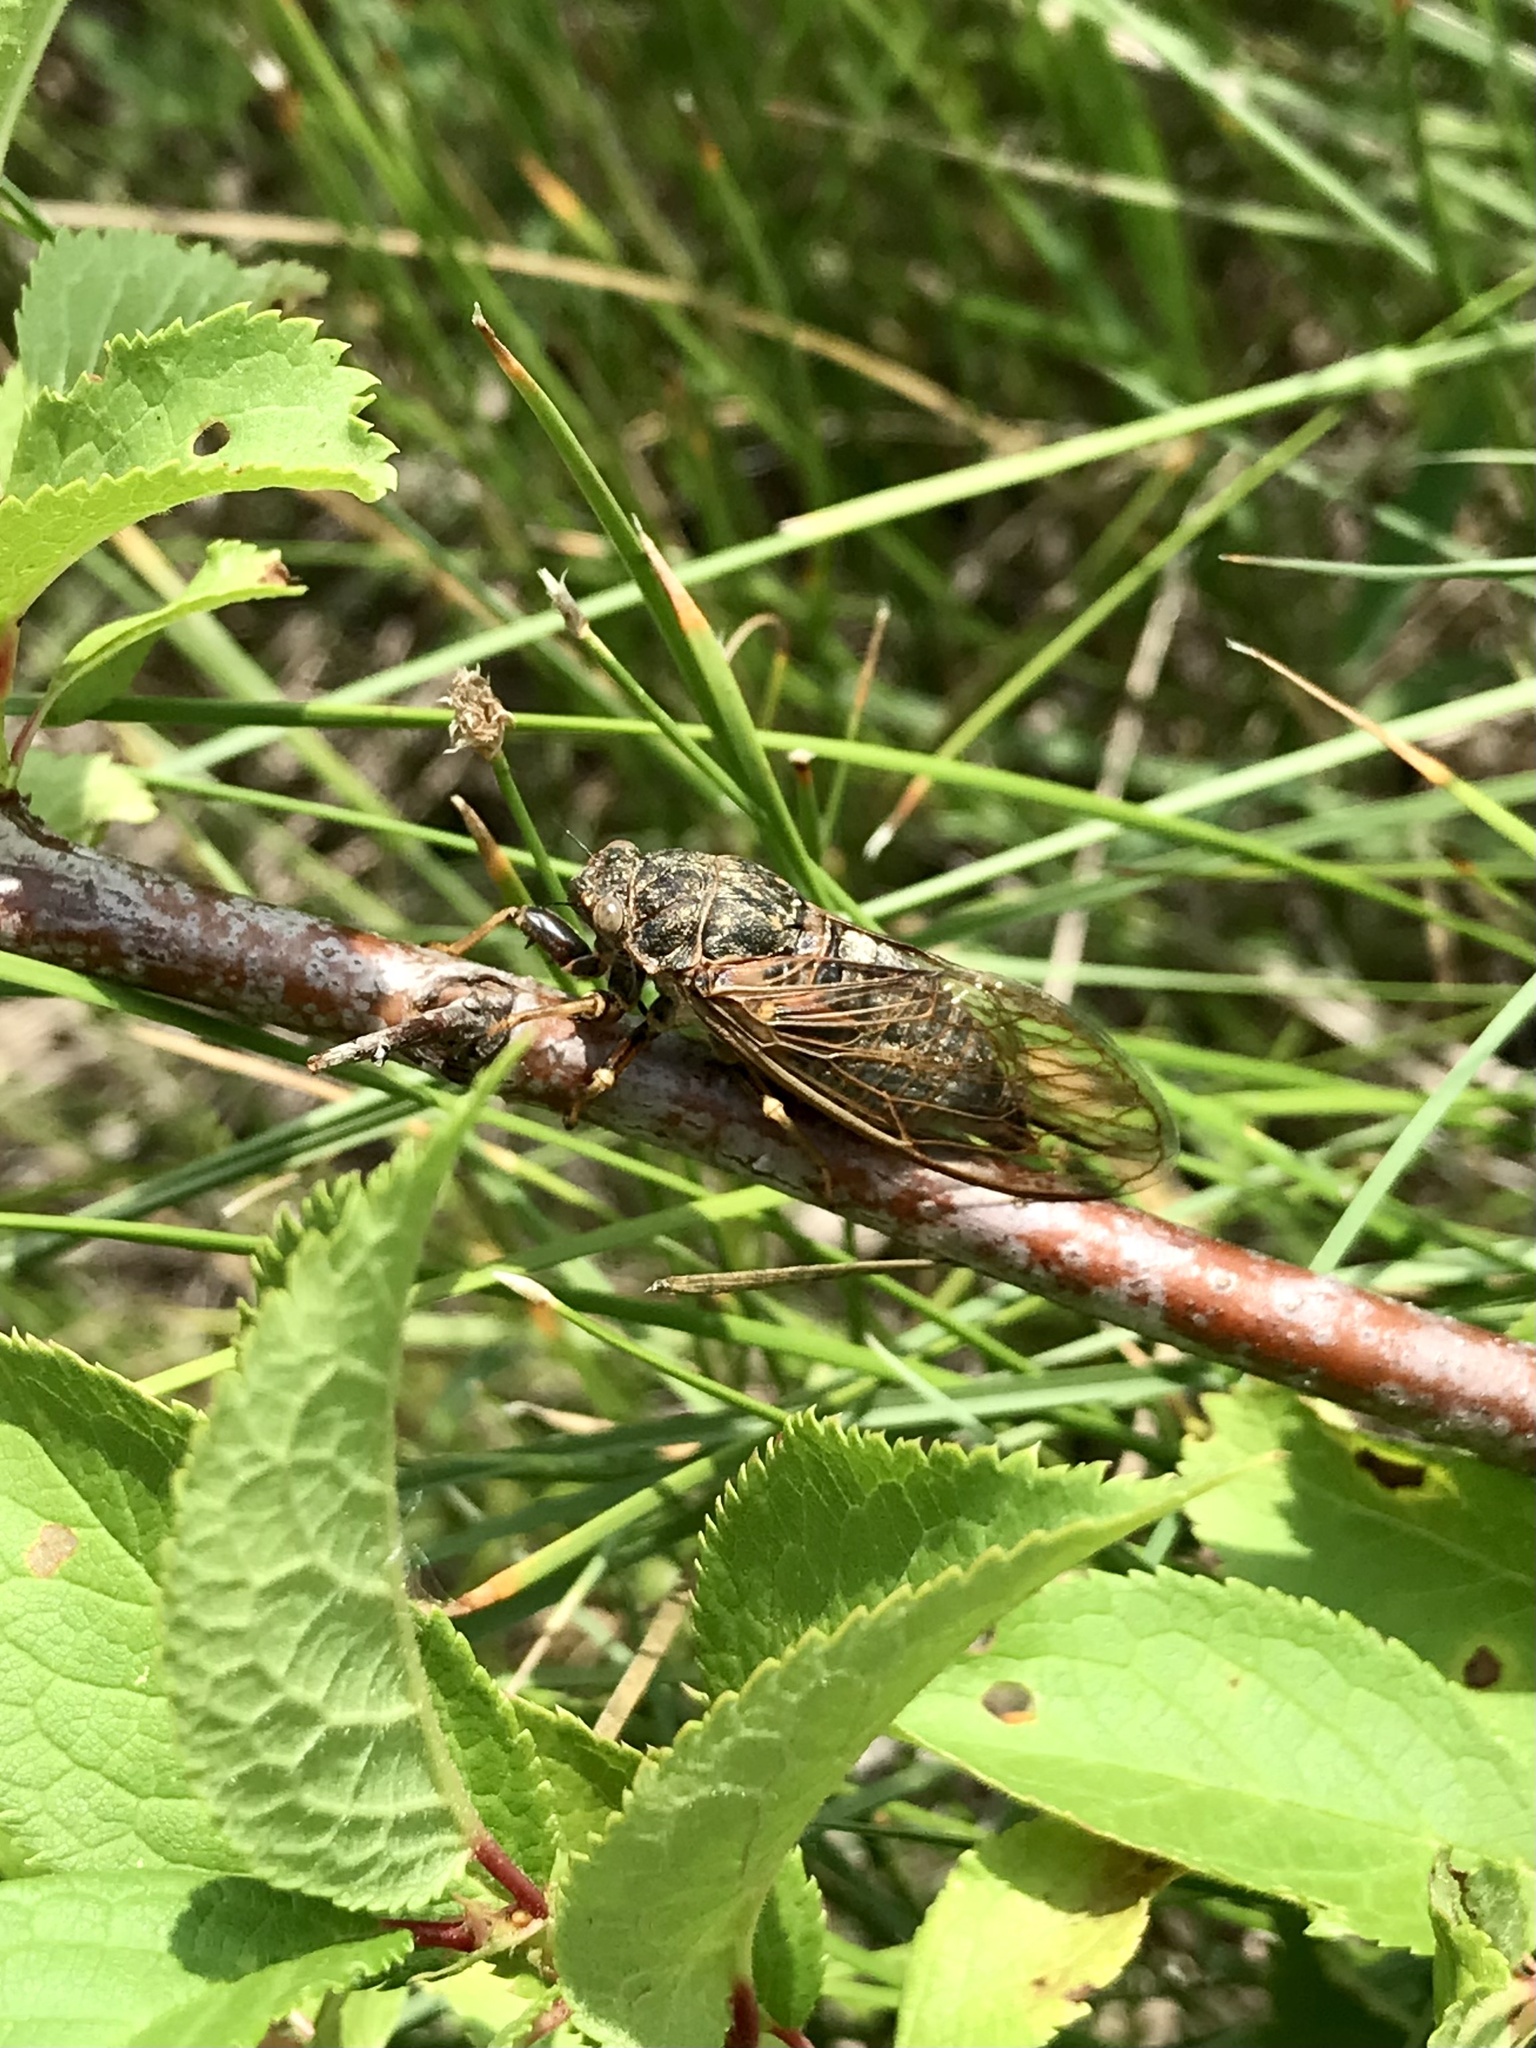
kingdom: Animalia
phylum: Arthropoda
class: Insecta
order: Hemiptera
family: Cicadidae
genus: Okanagana
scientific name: Okanagana balli
